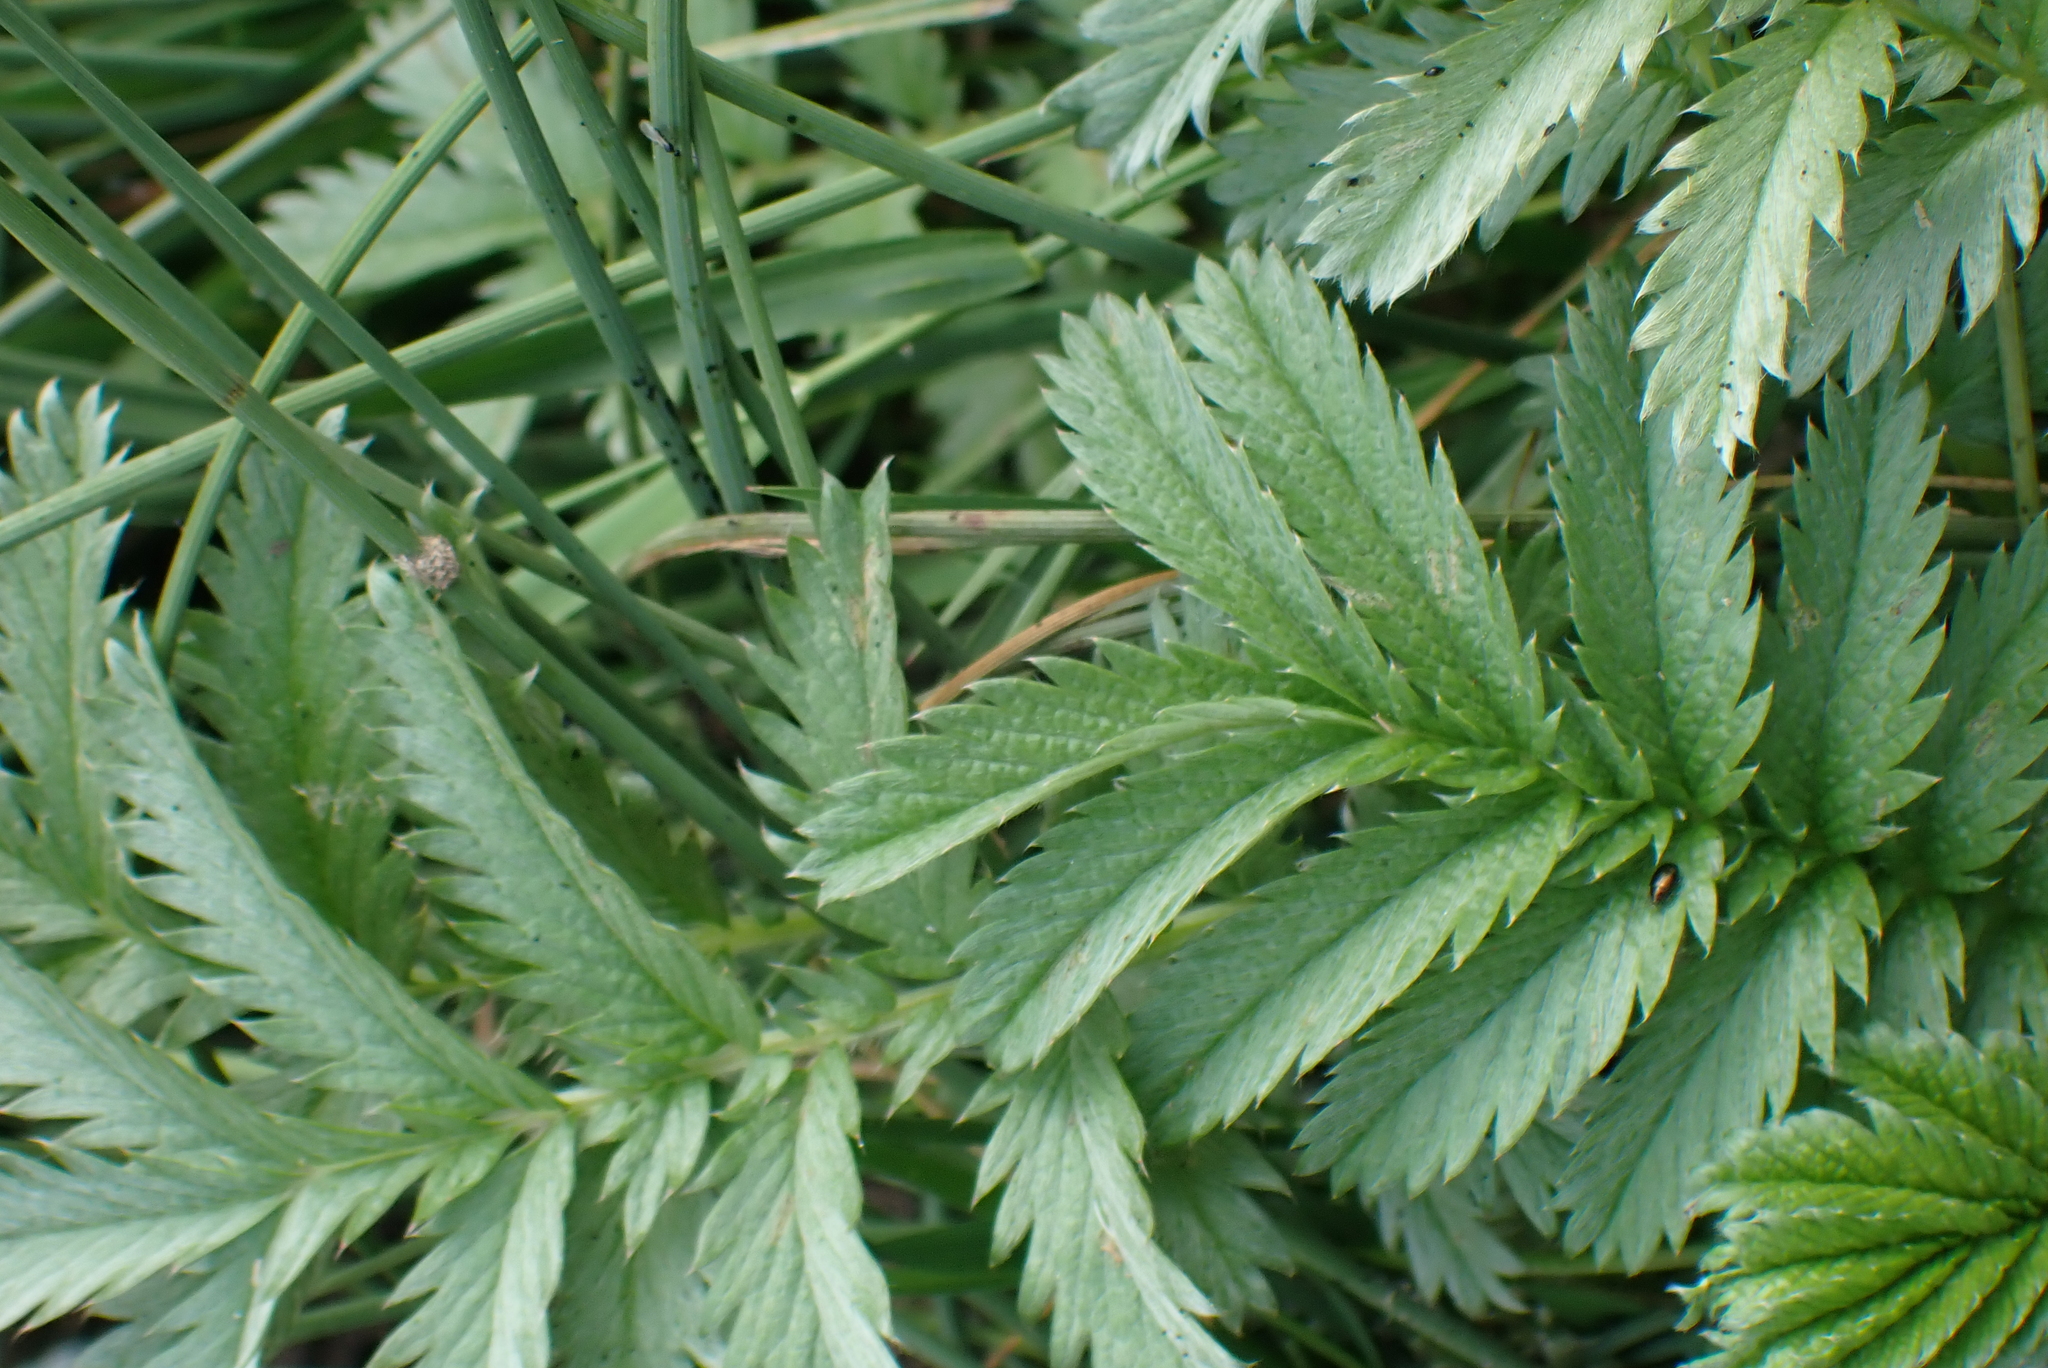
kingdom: Plantae
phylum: Tracheophyta
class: Magnoliopsida
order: Rosales
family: Rosaceae
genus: Argentina
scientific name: Argentina anserina
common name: Common silverweed
